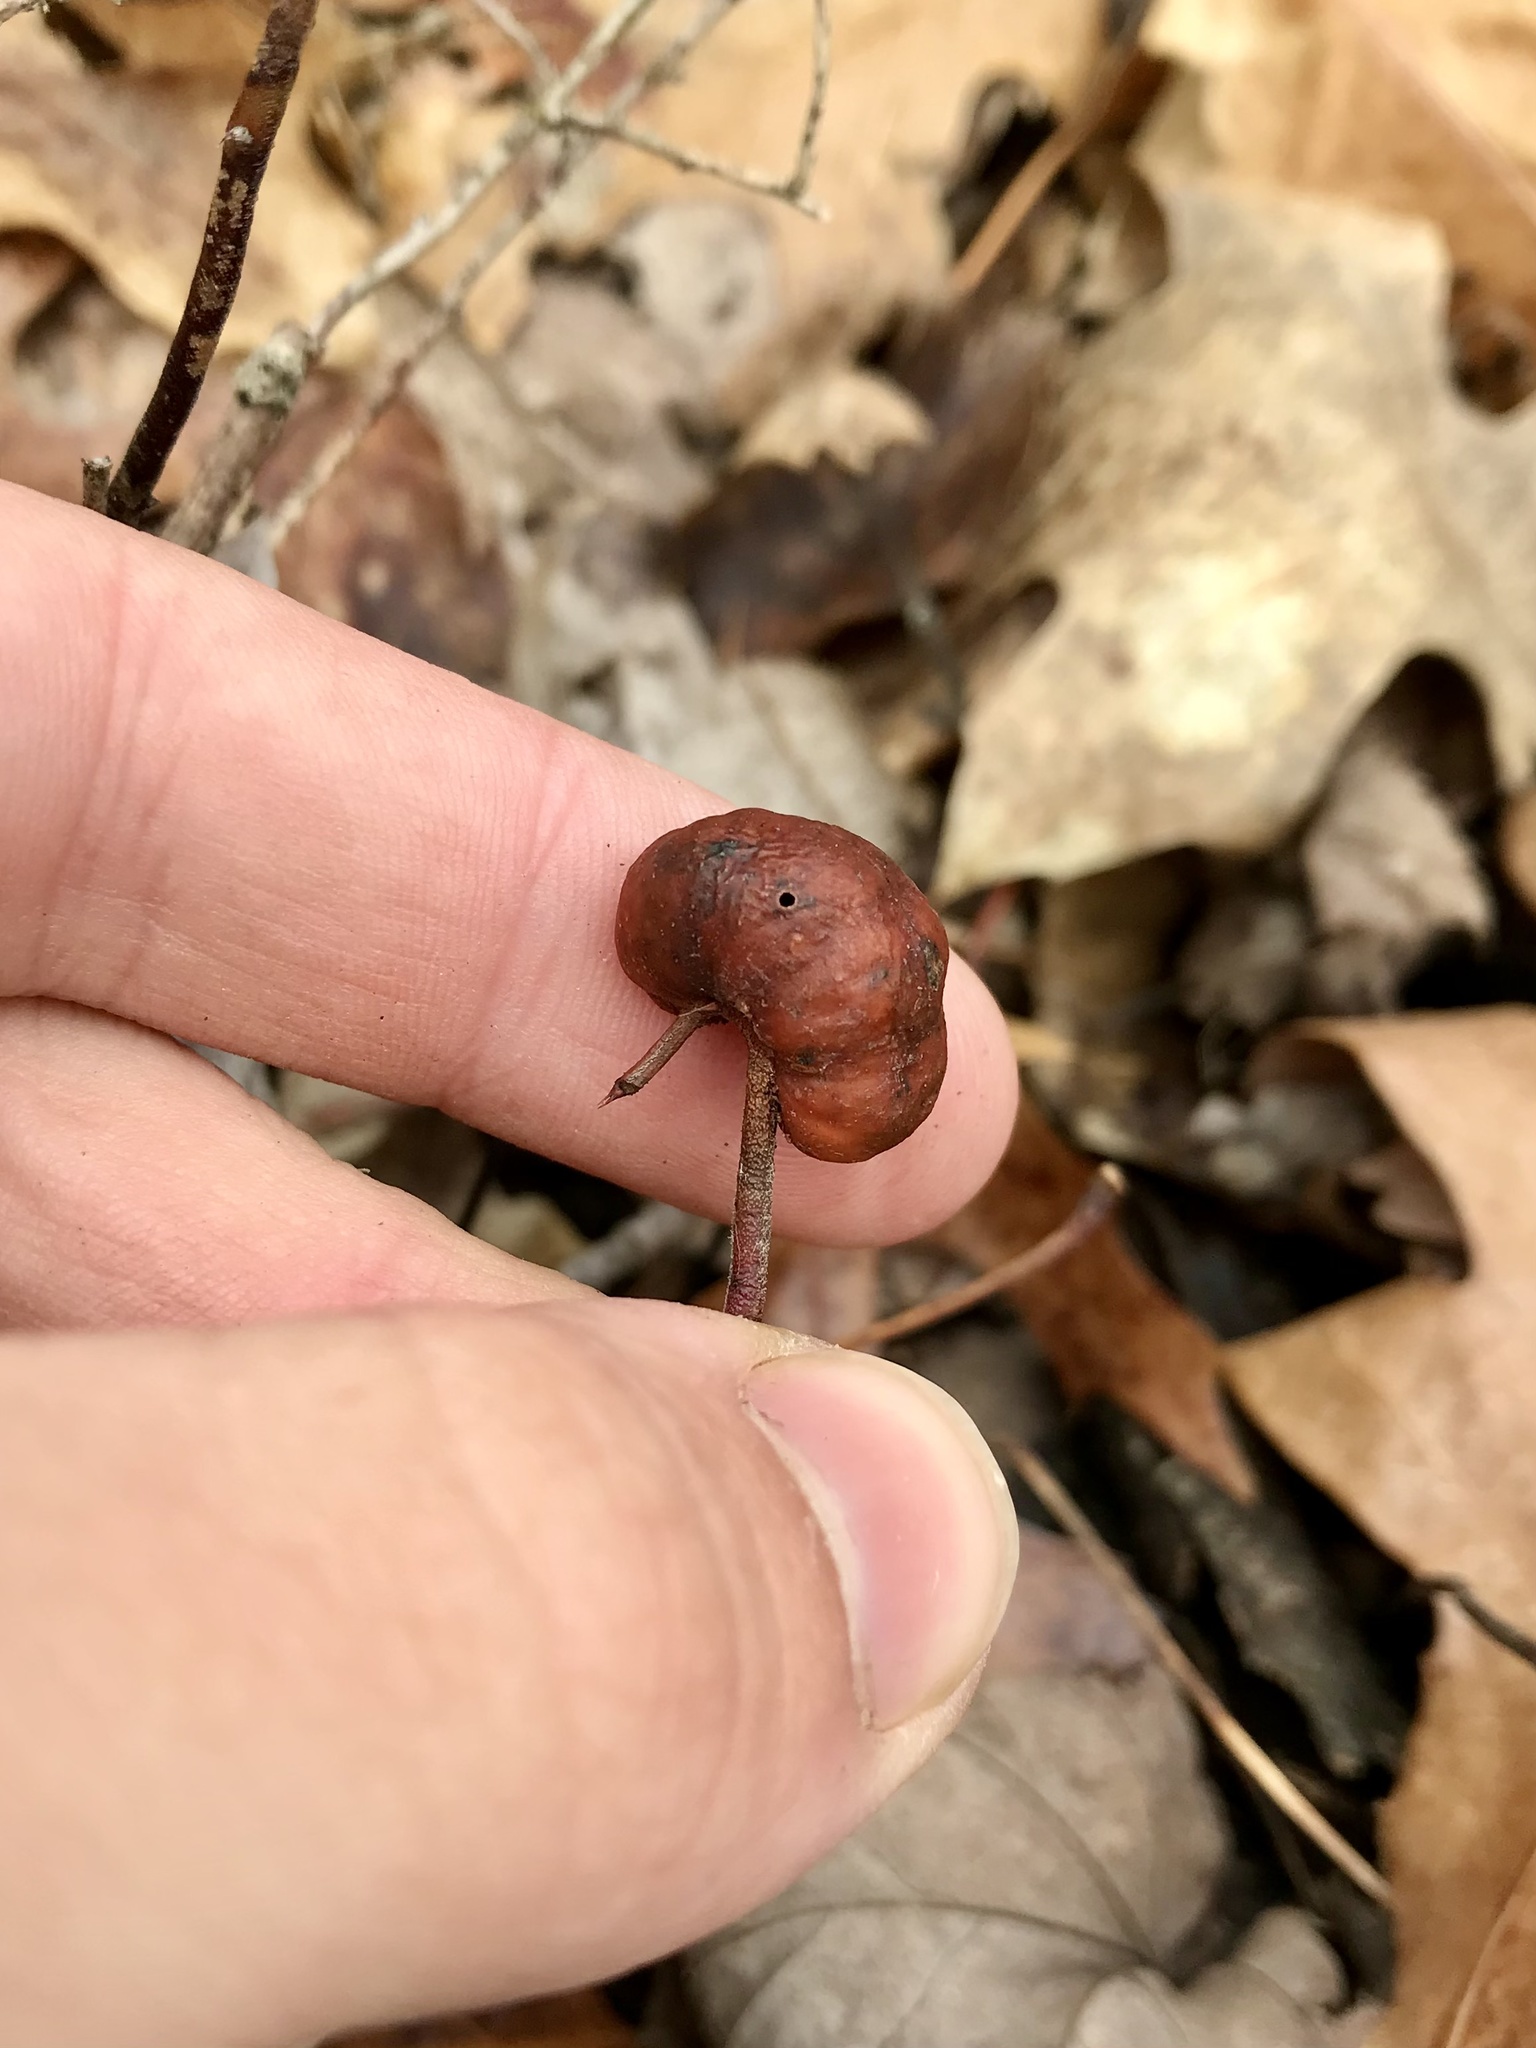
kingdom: Animalia
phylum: Arthropoda
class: Insecta
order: Hymenoptera
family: Pteromalidae
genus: Hemadas
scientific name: Hemadas nubilipennis
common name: Blueberry stem gall wasp
